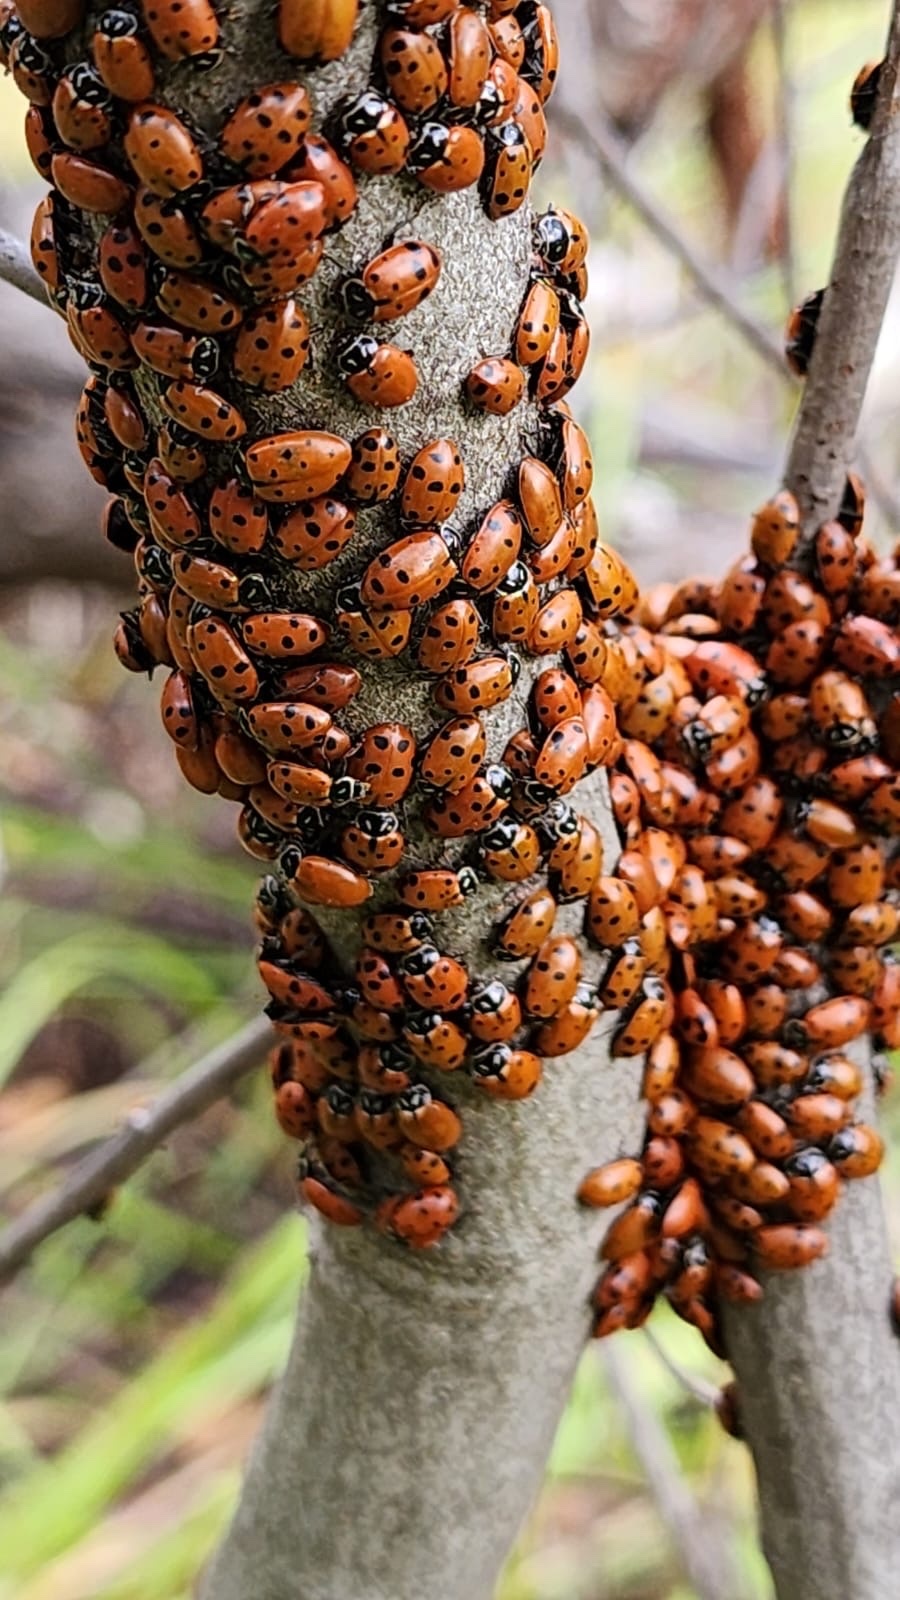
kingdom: Animalia
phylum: Arthropoda
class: Insecta
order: Coleoptera
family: Coccinellidae
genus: Hippodamia
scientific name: Hippodamia convergens
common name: Convergent lady beetle
